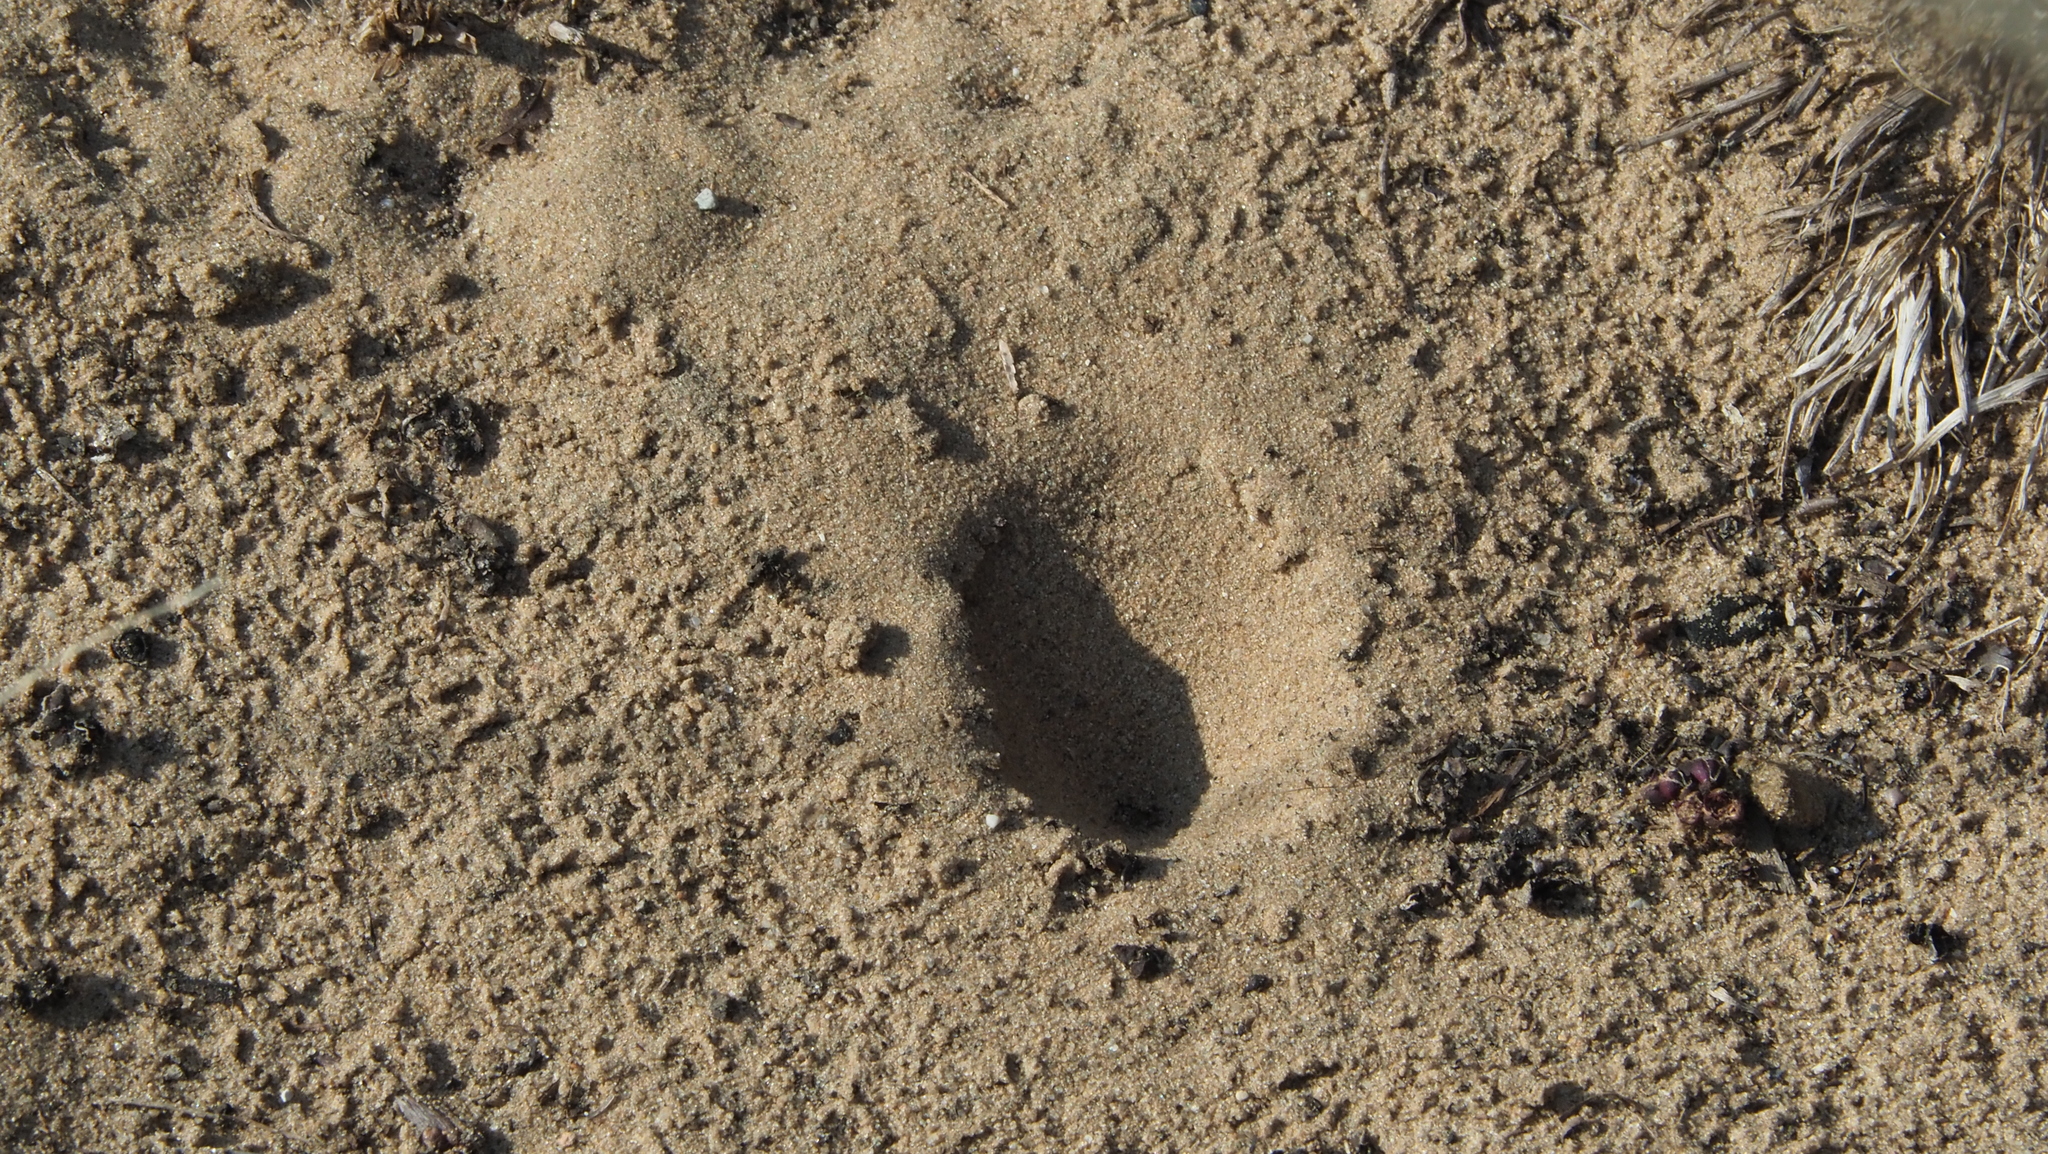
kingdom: Animalia
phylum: Arthropoda
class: Insecta
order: Neuroptera
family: Myrmeleontidae
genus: Myrmeleon
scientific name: Myrmeleon immaculatus
